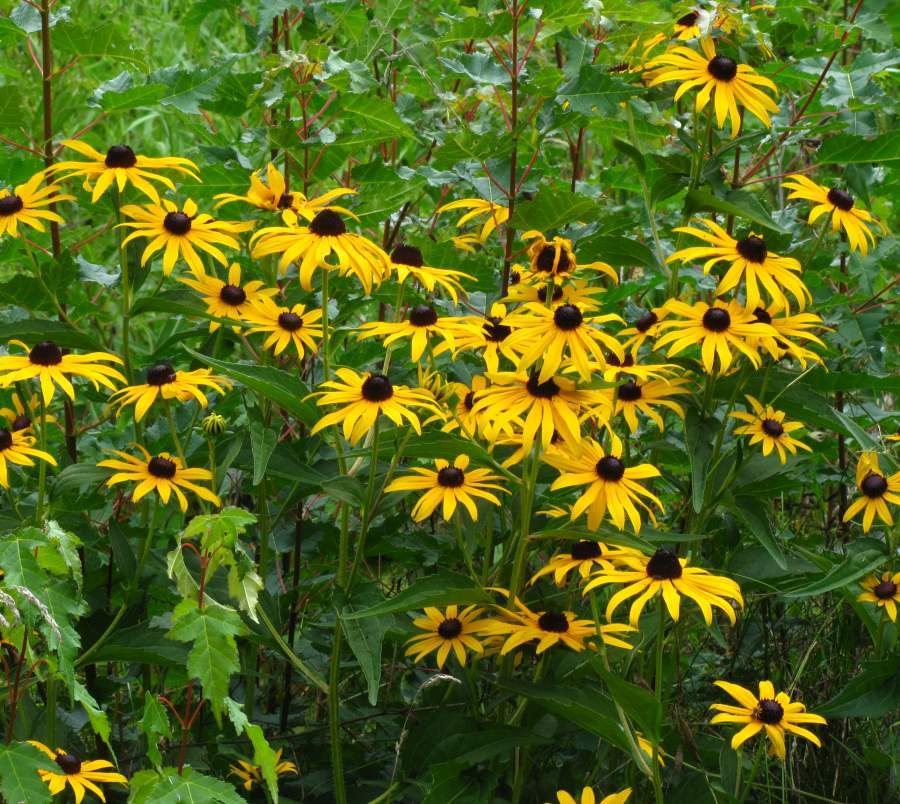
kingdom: Plantae
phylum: Tracheophyta
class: Magnoliopsida
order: Asterales
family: Asteraceae
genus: Rudbeckia
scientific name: Rudbeckia fulgida
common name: Perennial coneflower
